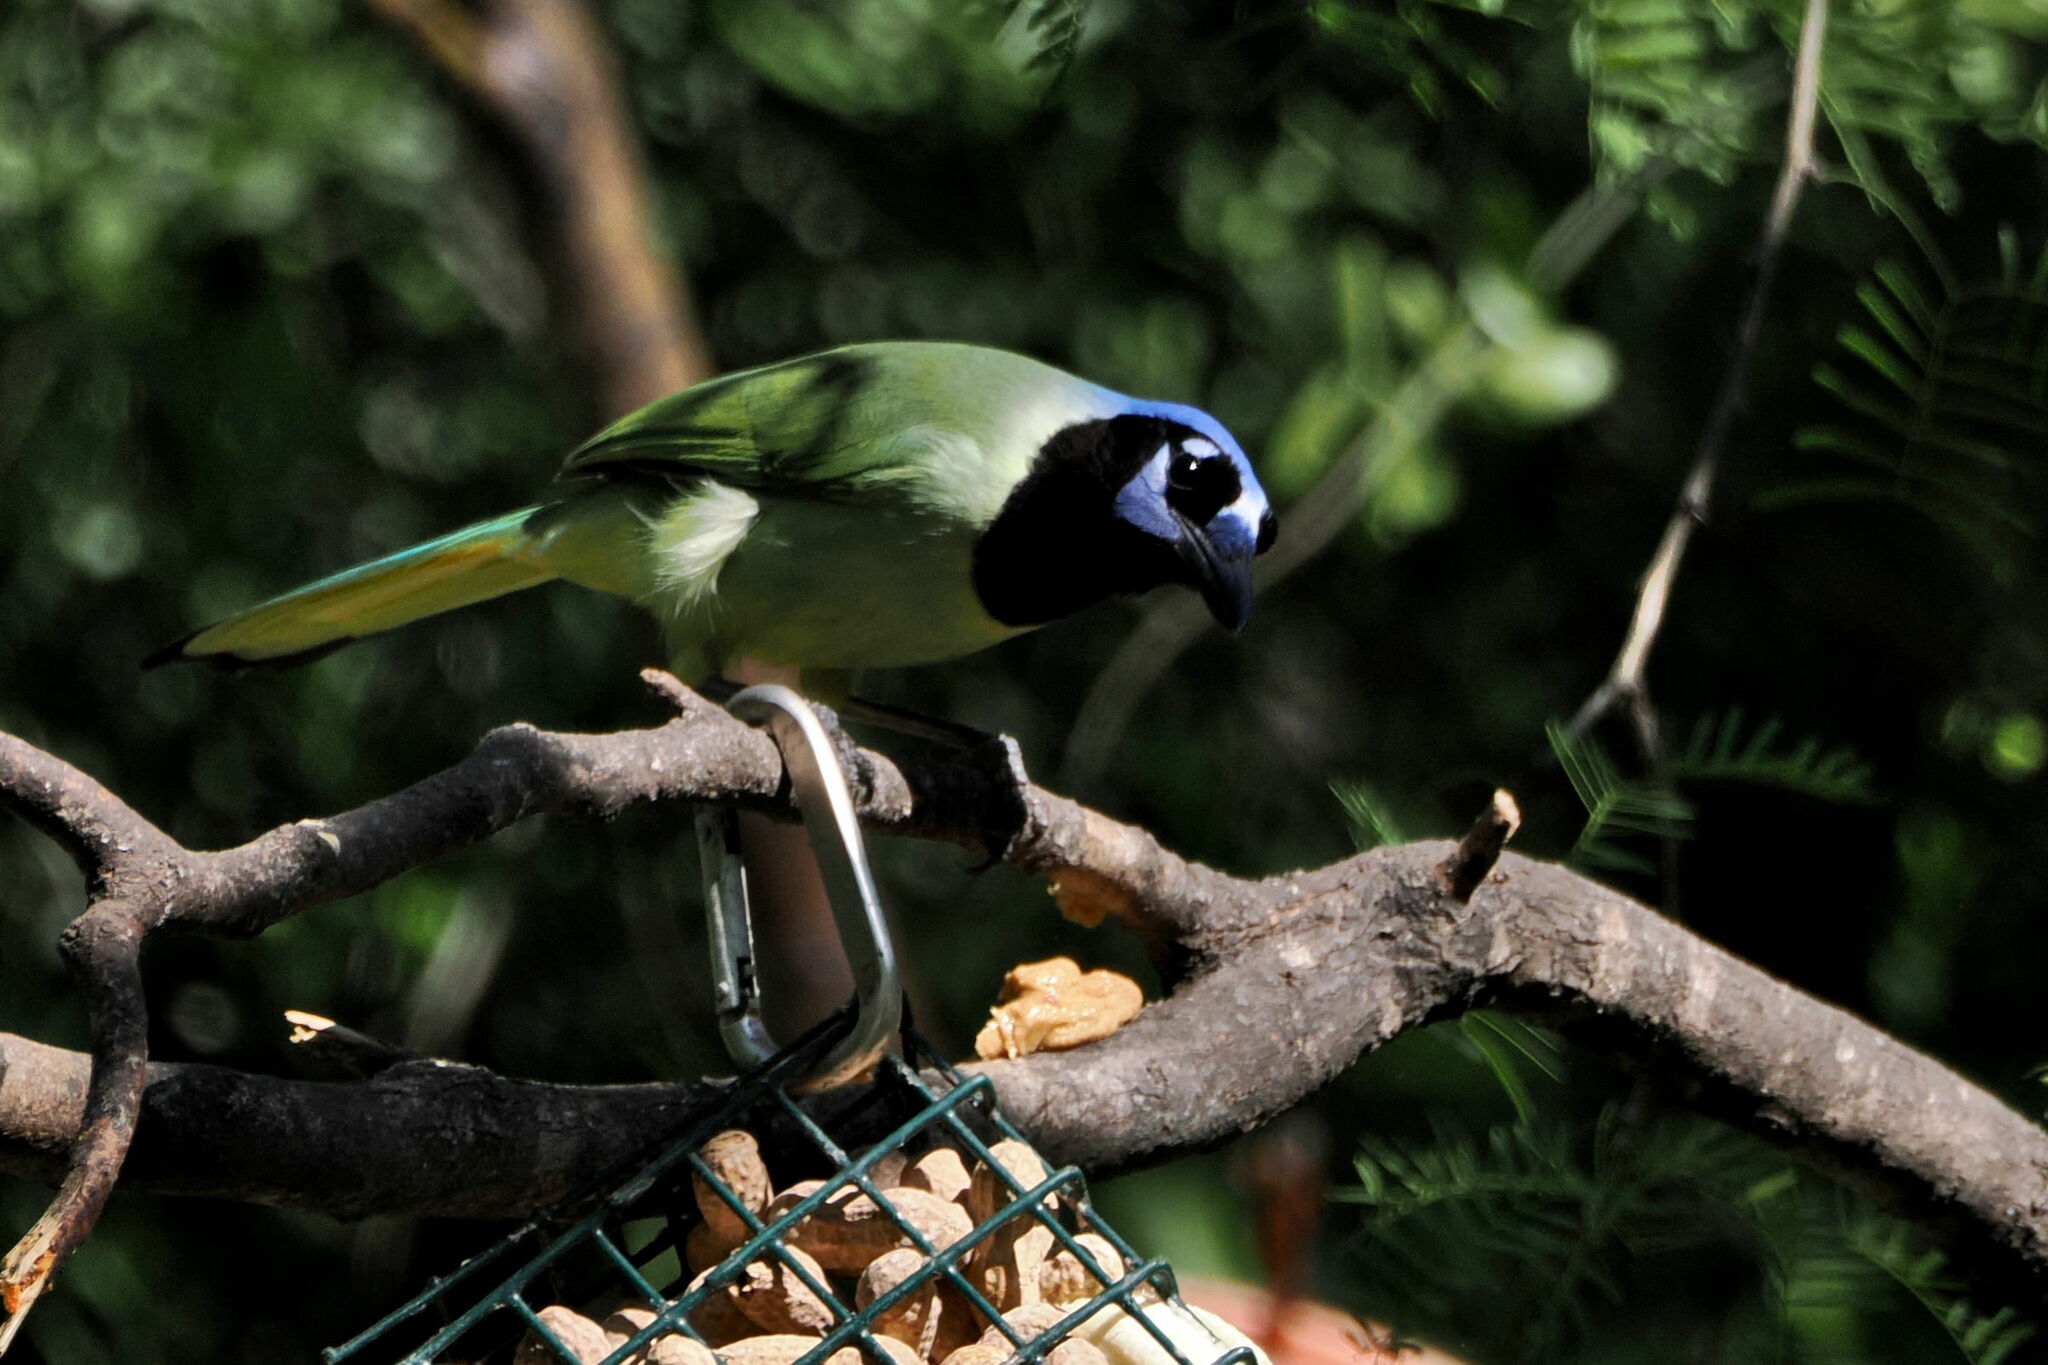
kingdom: Animalia
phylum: Chordata
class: Aves
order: Passeriformes
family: Corvidae
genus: Cyanocorax
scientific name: Cyanocorax yncas
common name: Green jay
